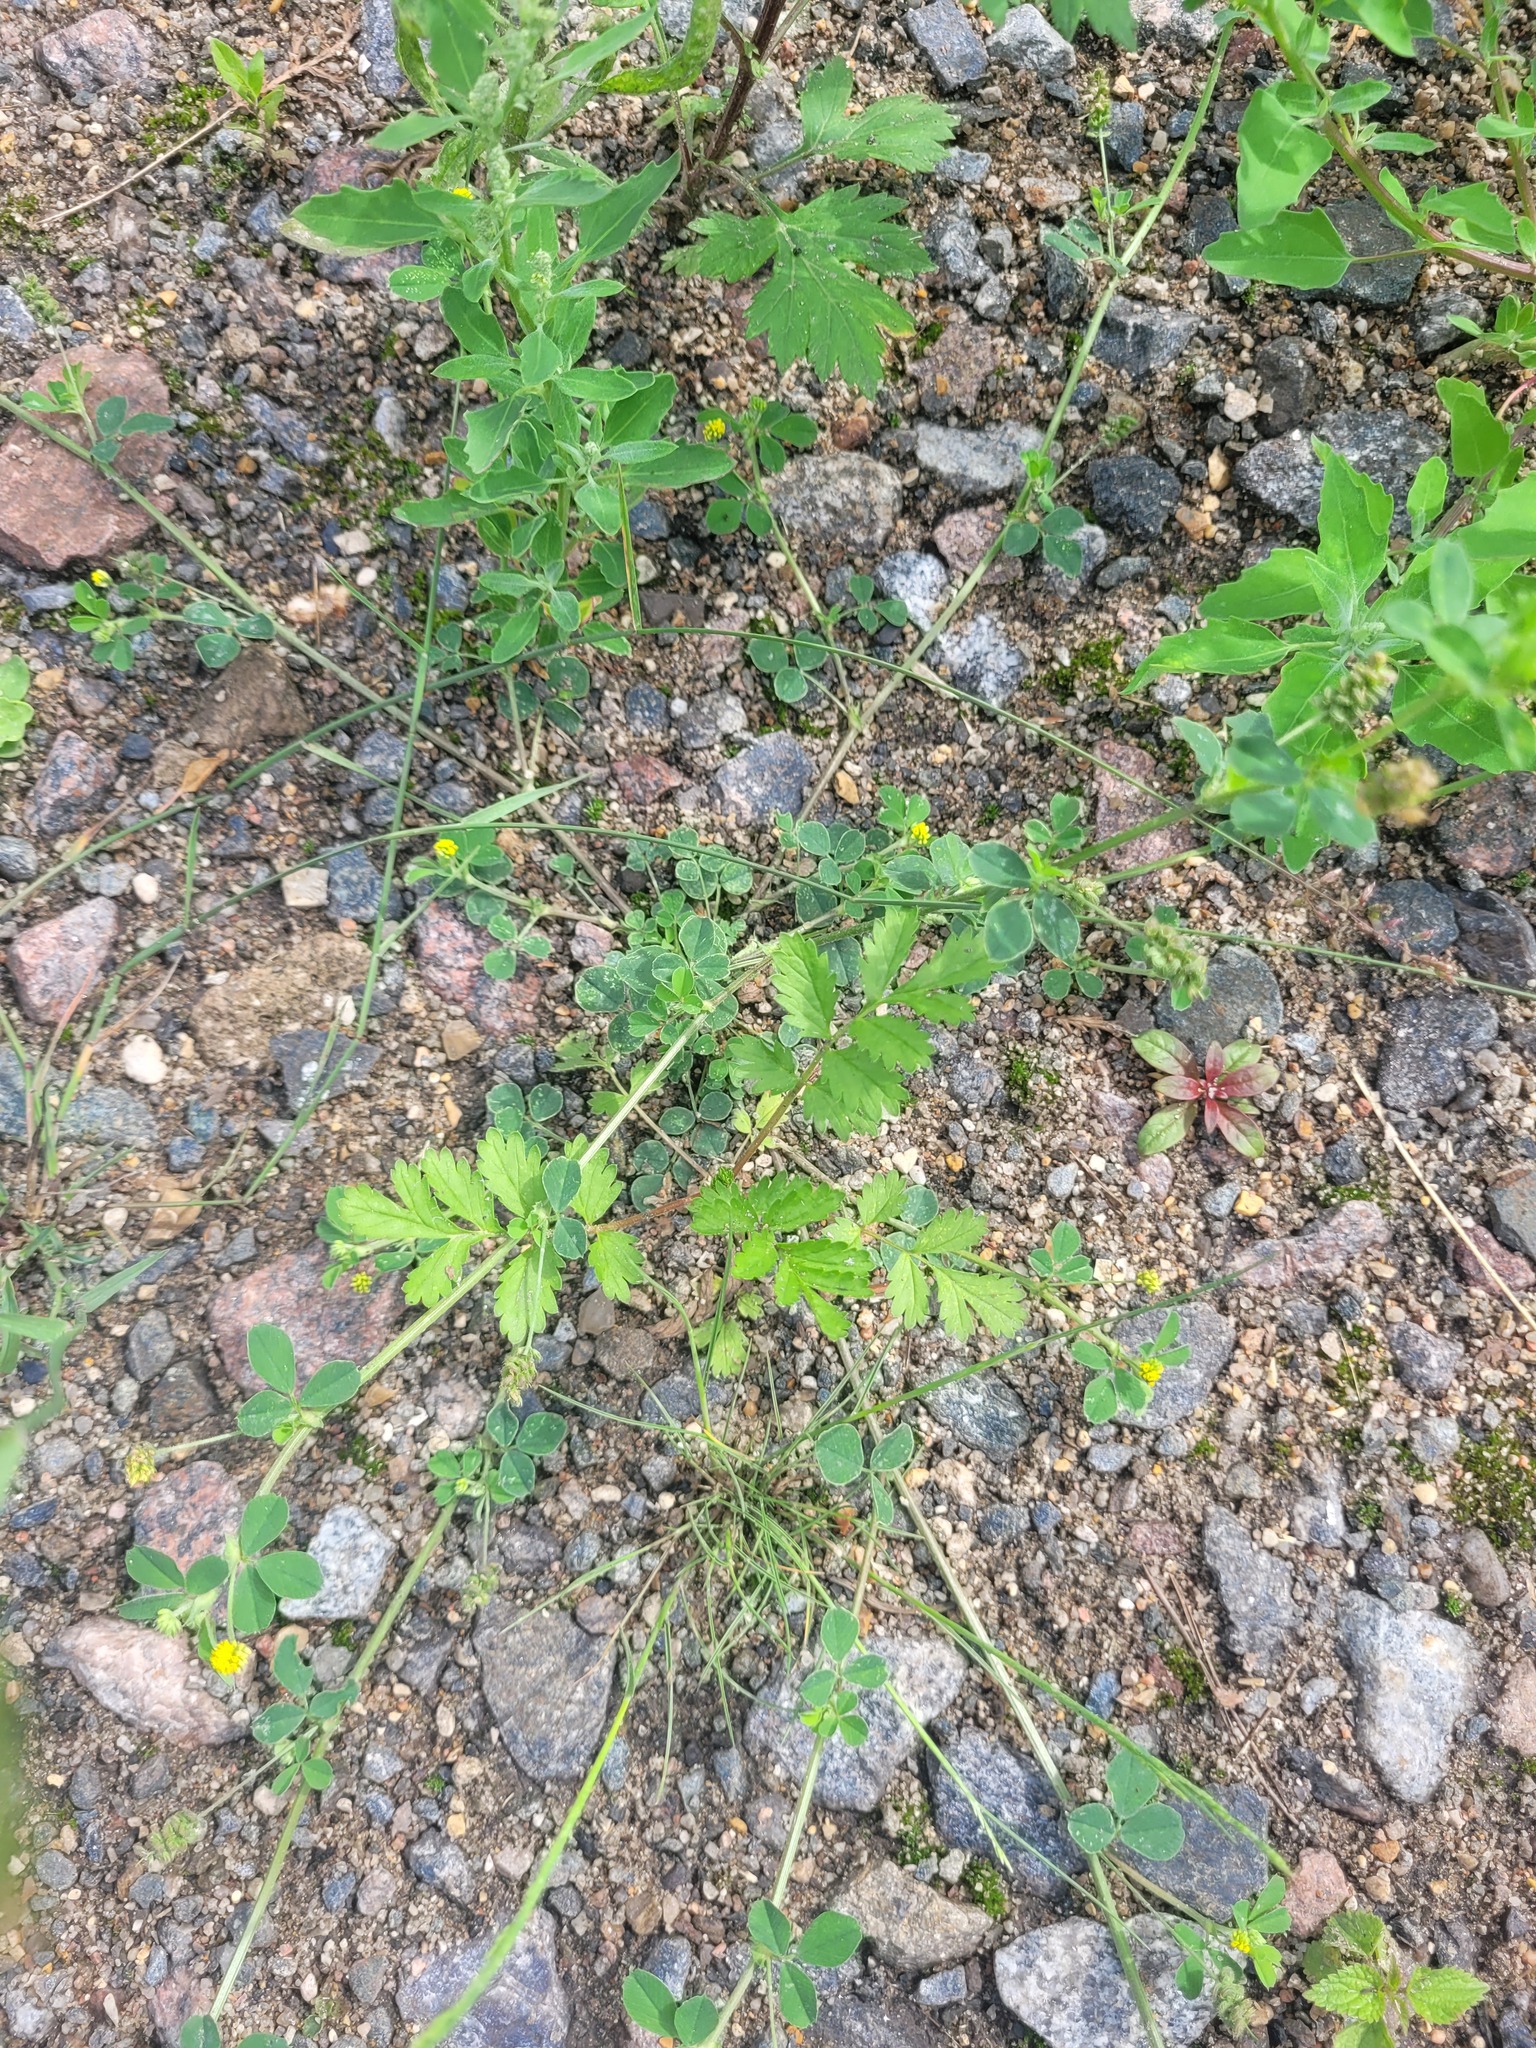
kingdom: Plantae
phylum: Tracheophyta
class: Magnoliopsida
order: Rosales
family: Rosaceae
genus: Potentilla
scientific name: Potentilla supina
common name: Prostrate cinquefoil
